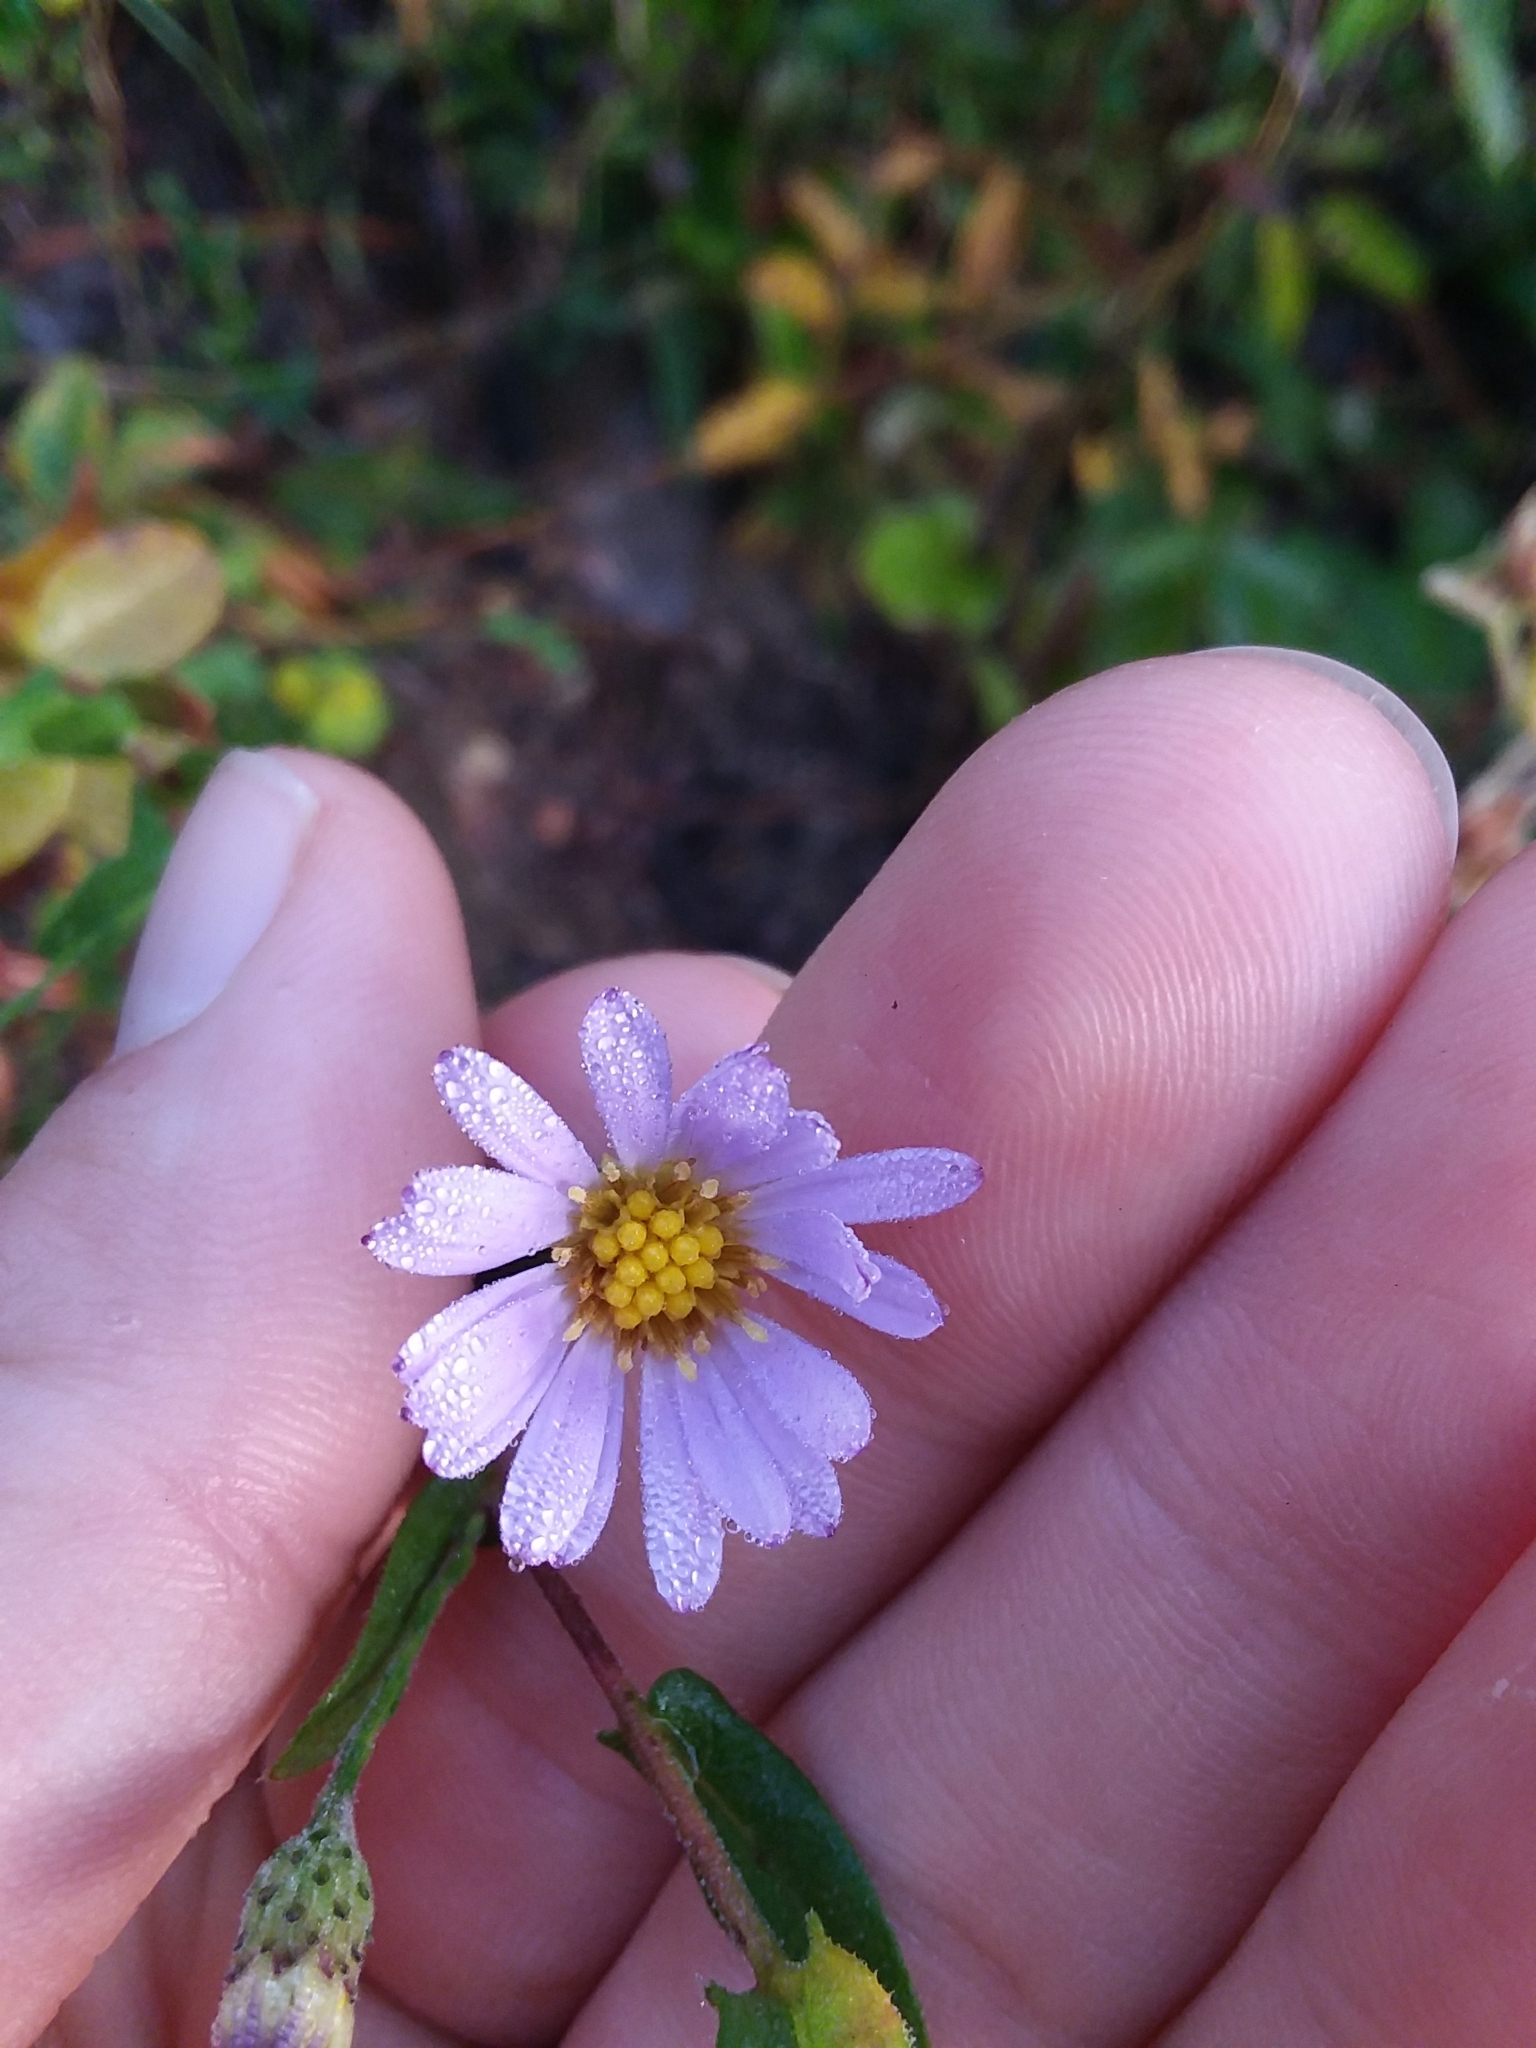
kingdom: Plantae
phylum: Tracheophyta
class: Magnoliopsida
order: Asterales
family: Asteraceae
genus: Symphyotrichum
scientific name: Symphyotrichum patens
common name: Late purple aster
